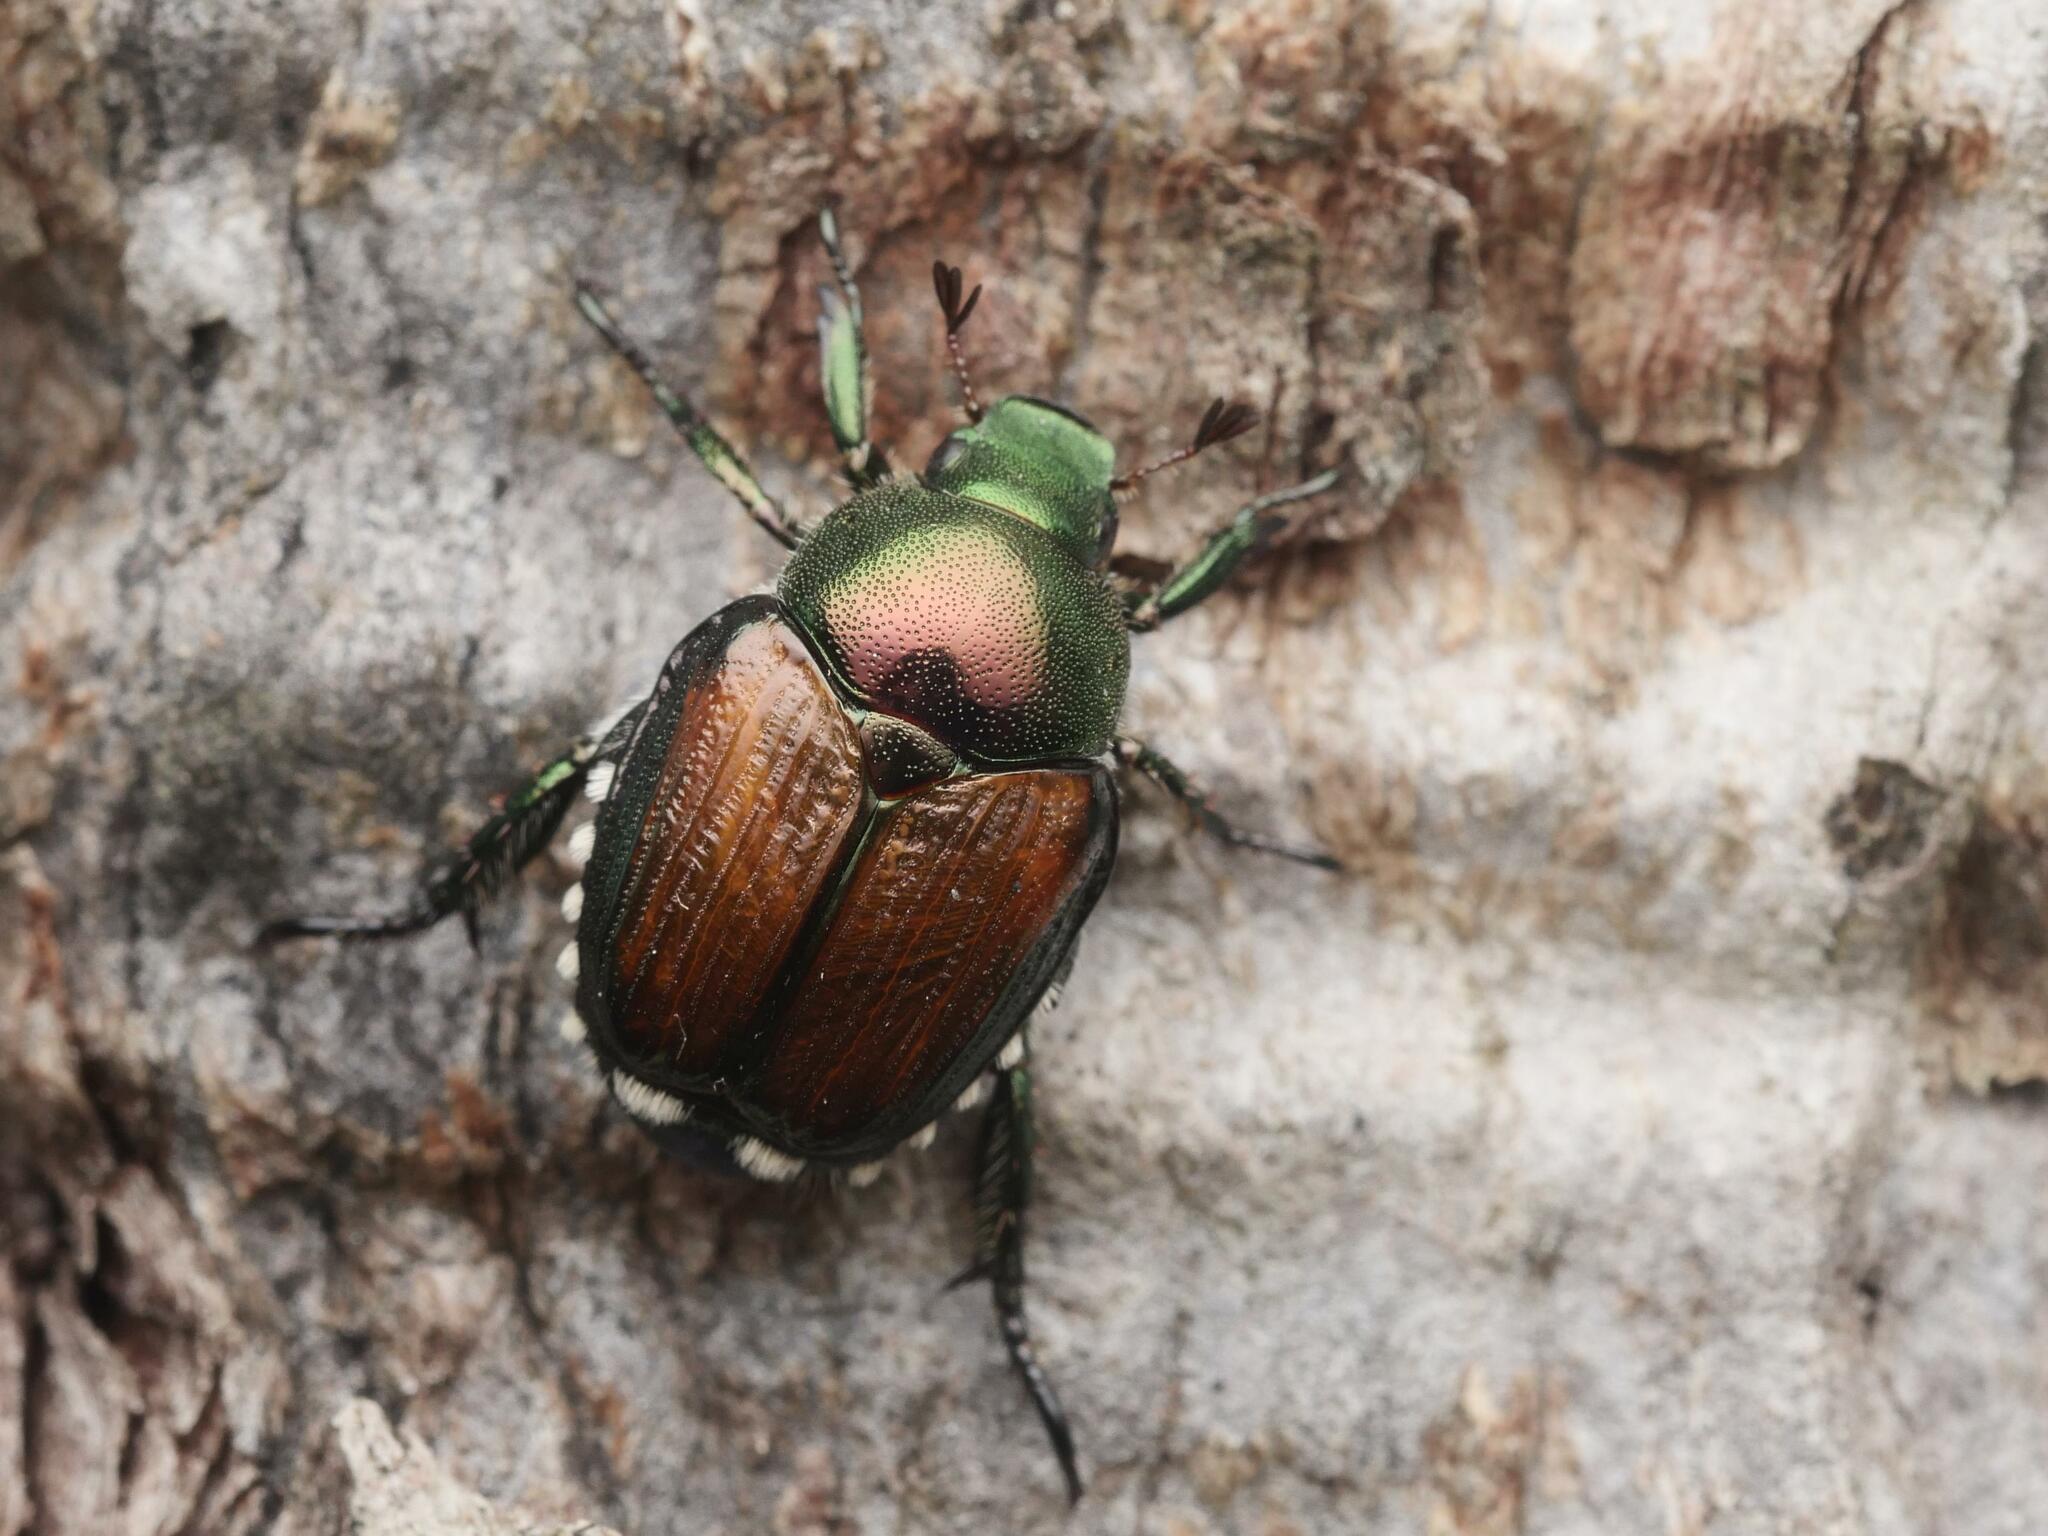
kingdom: Animalia
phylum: Arthropoda
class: Insecta
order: Coleoptera
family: Scarabaeidae
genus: Popillia
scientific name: Popillia japonica
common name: Japanese beetle
